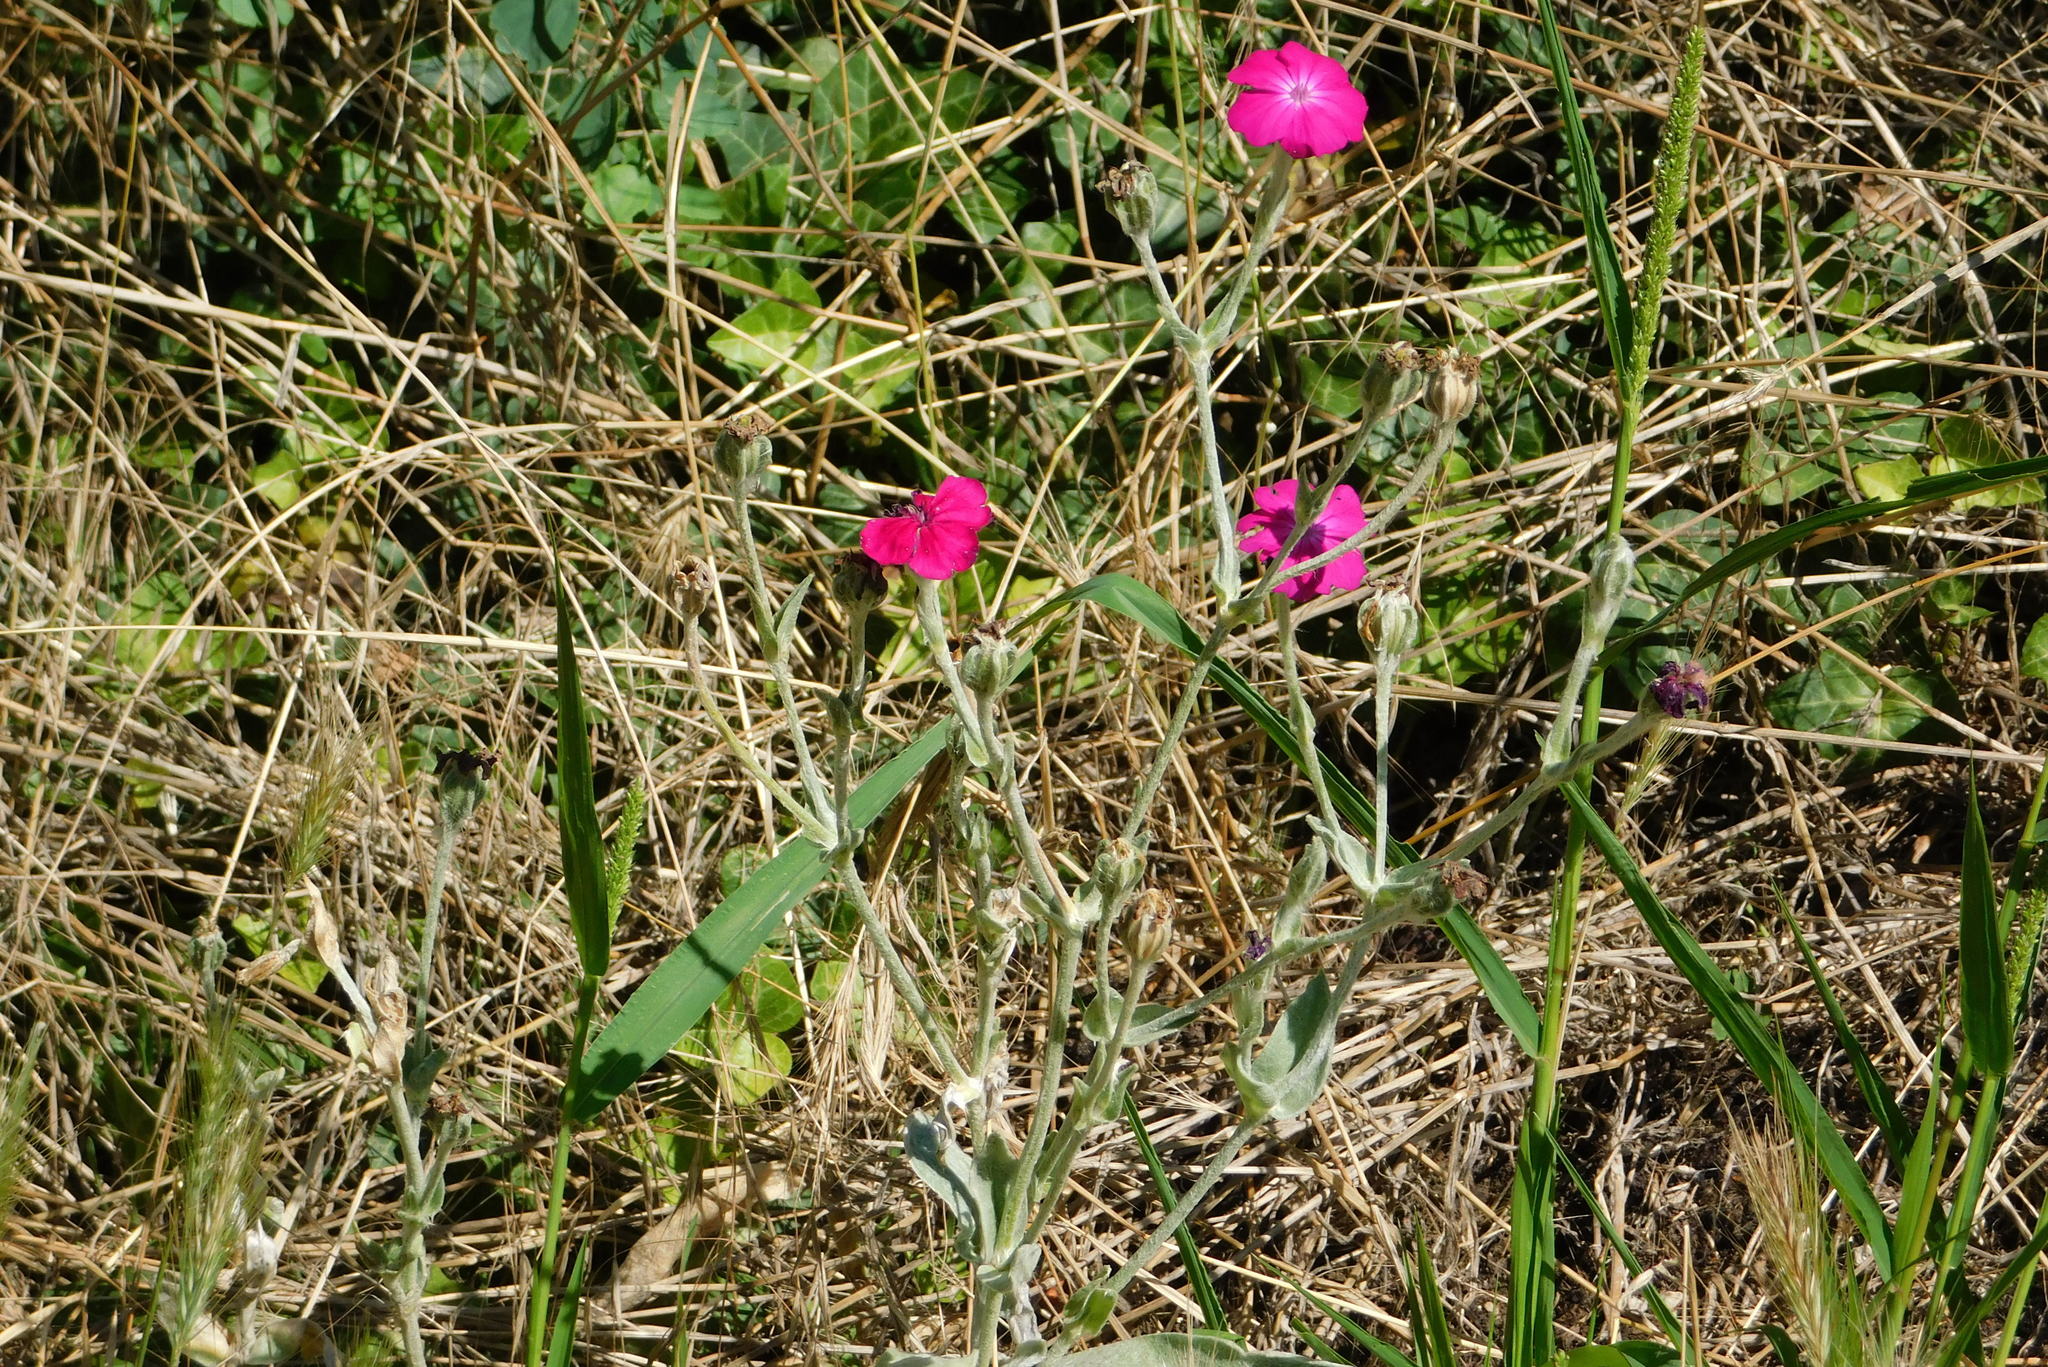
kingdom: Plantae
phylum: Tracheophyta
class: Magnoliopsida
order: Caryophyllales
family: Caryophyllaceae
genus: Silene
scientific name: Silene coronaria
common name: Rose campion
